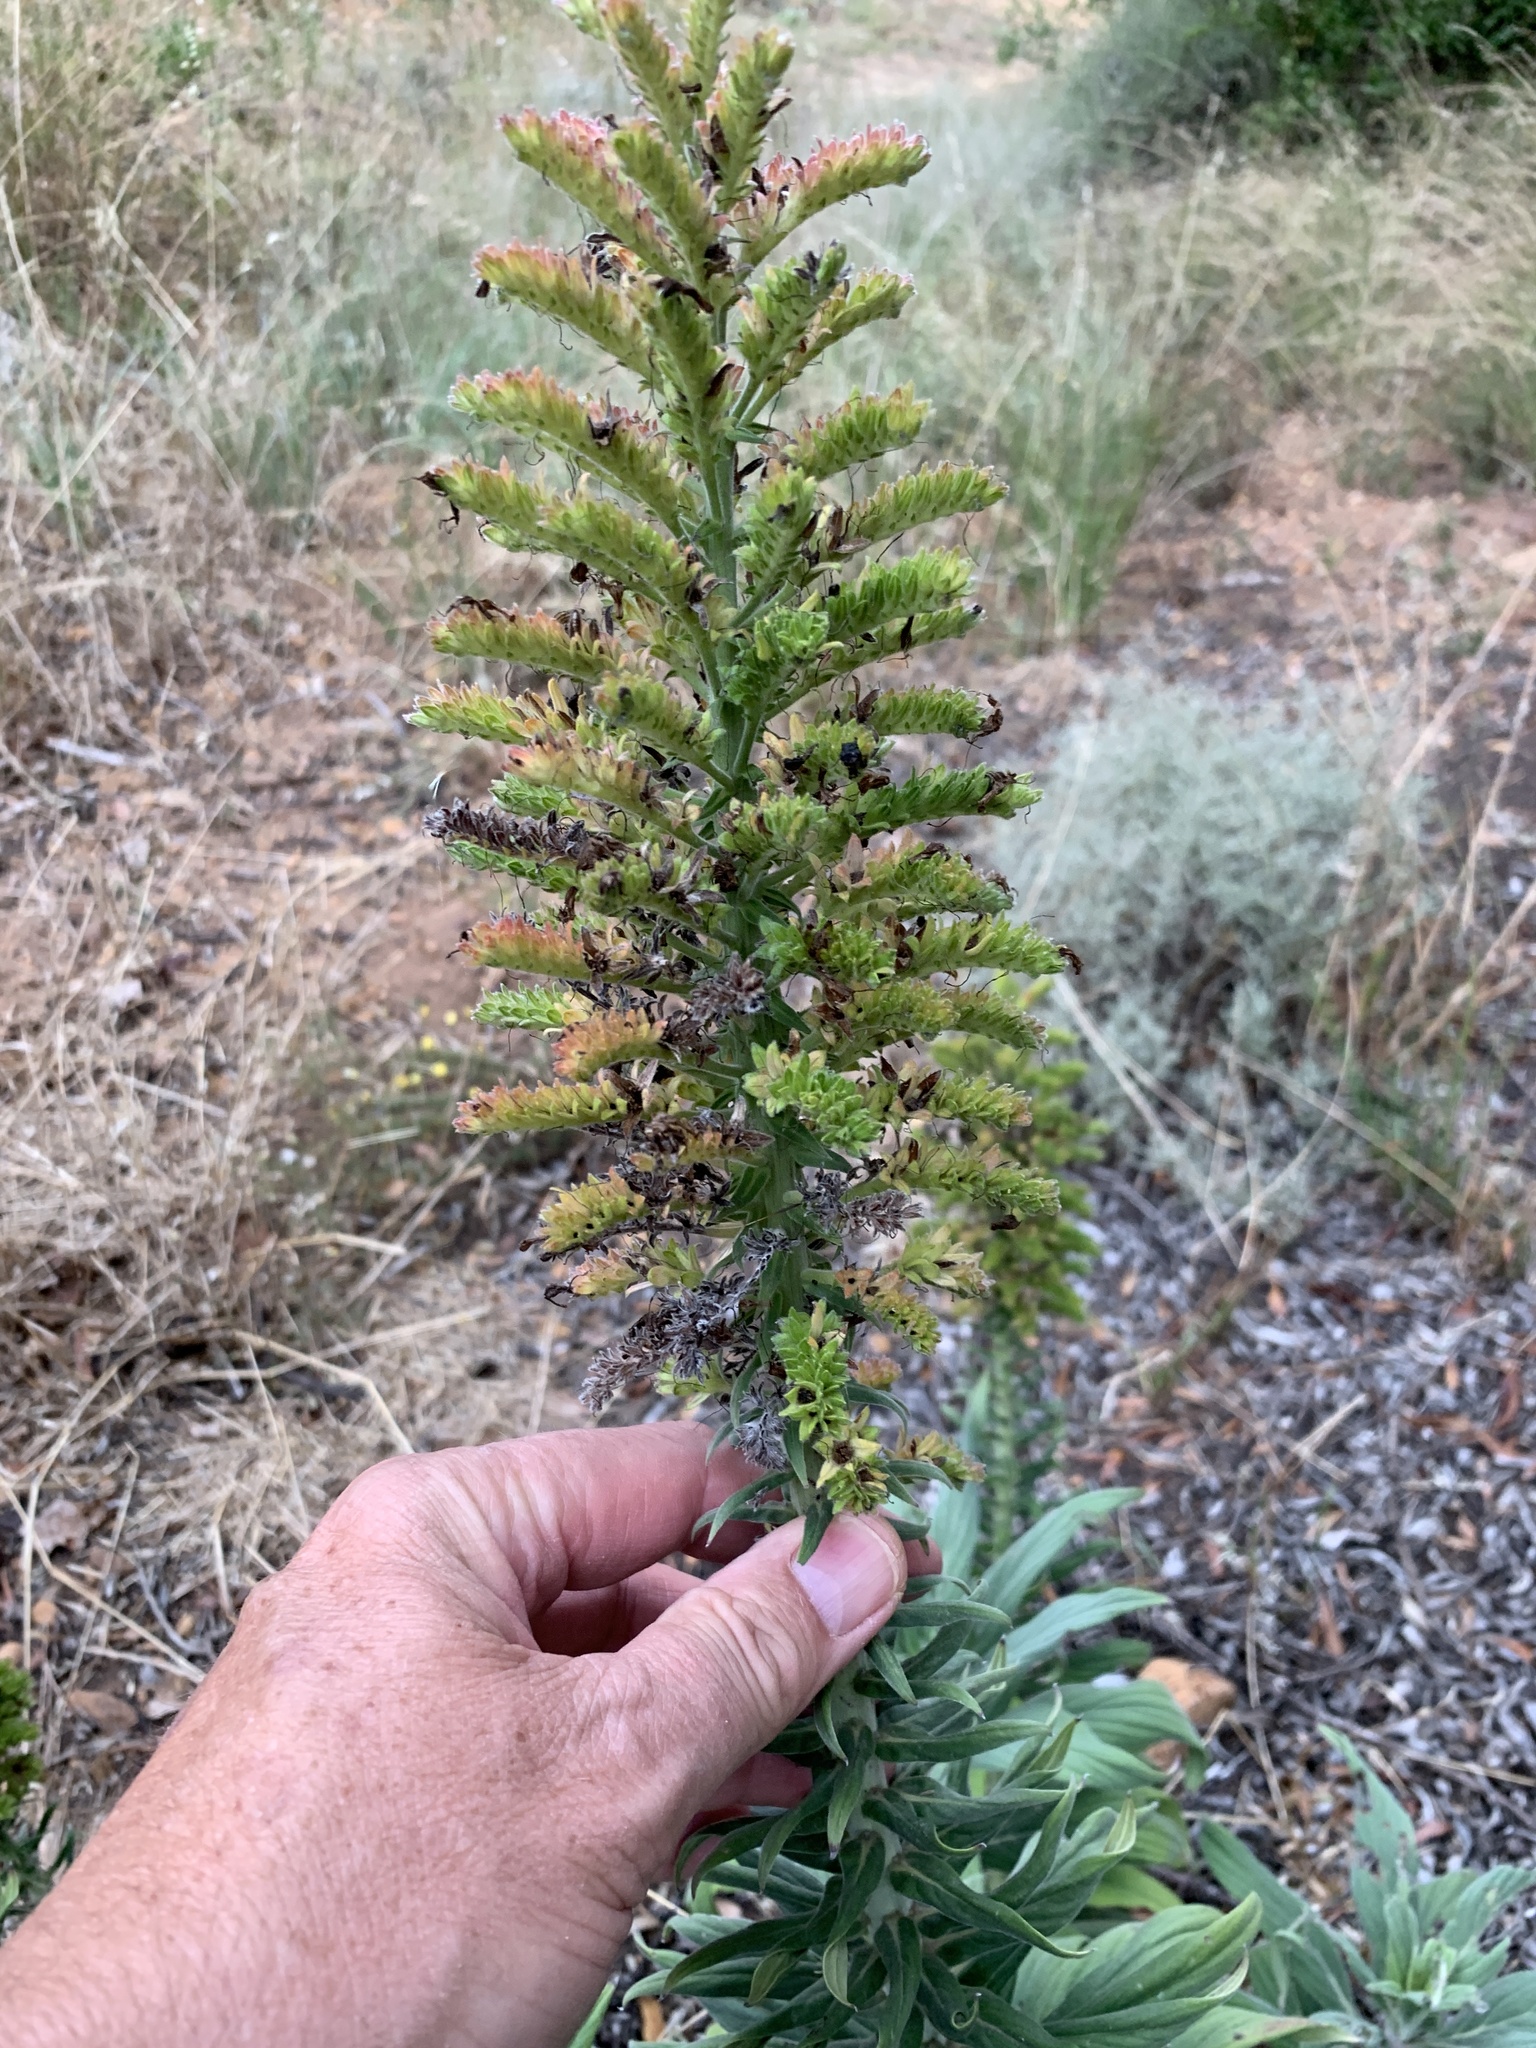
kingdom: Plantae
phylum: Tracheophyta
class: Magnoliopsida
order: Boraginales
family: Boraginaceae
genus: Echium
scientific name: Echium candicans
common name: Pride of madeira
